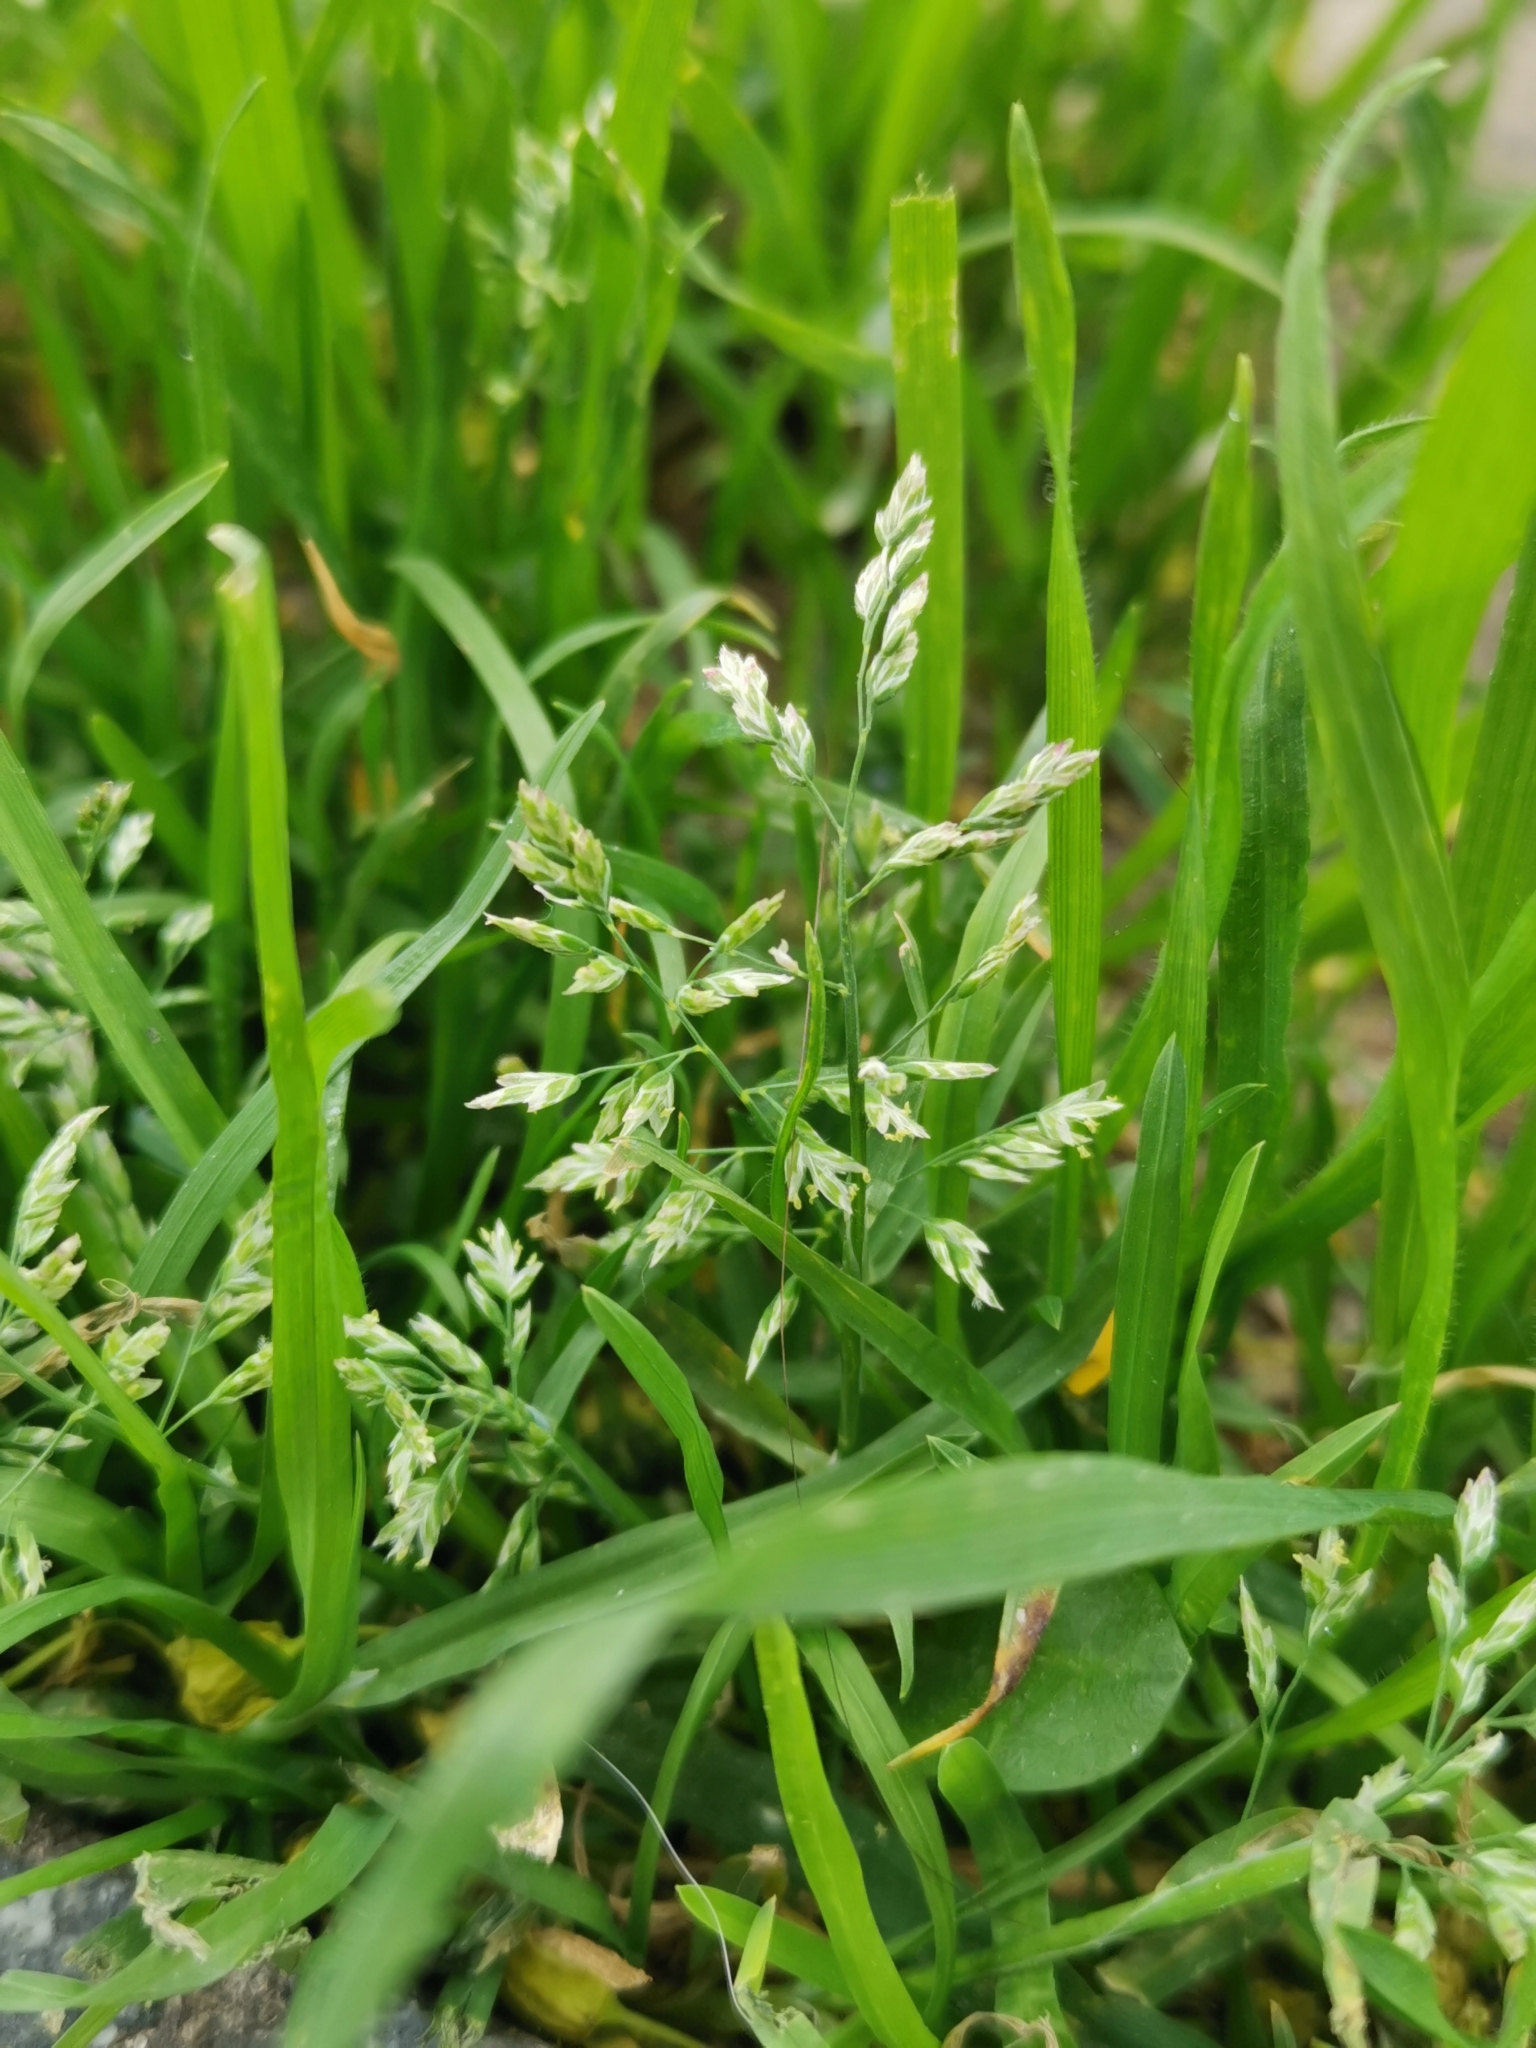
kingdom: Plantae
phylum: Tracheophyta
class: Liliopsida
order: Poales
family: Poaceae
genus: Poa
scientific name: Poa annua
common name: Annual bluegrass
